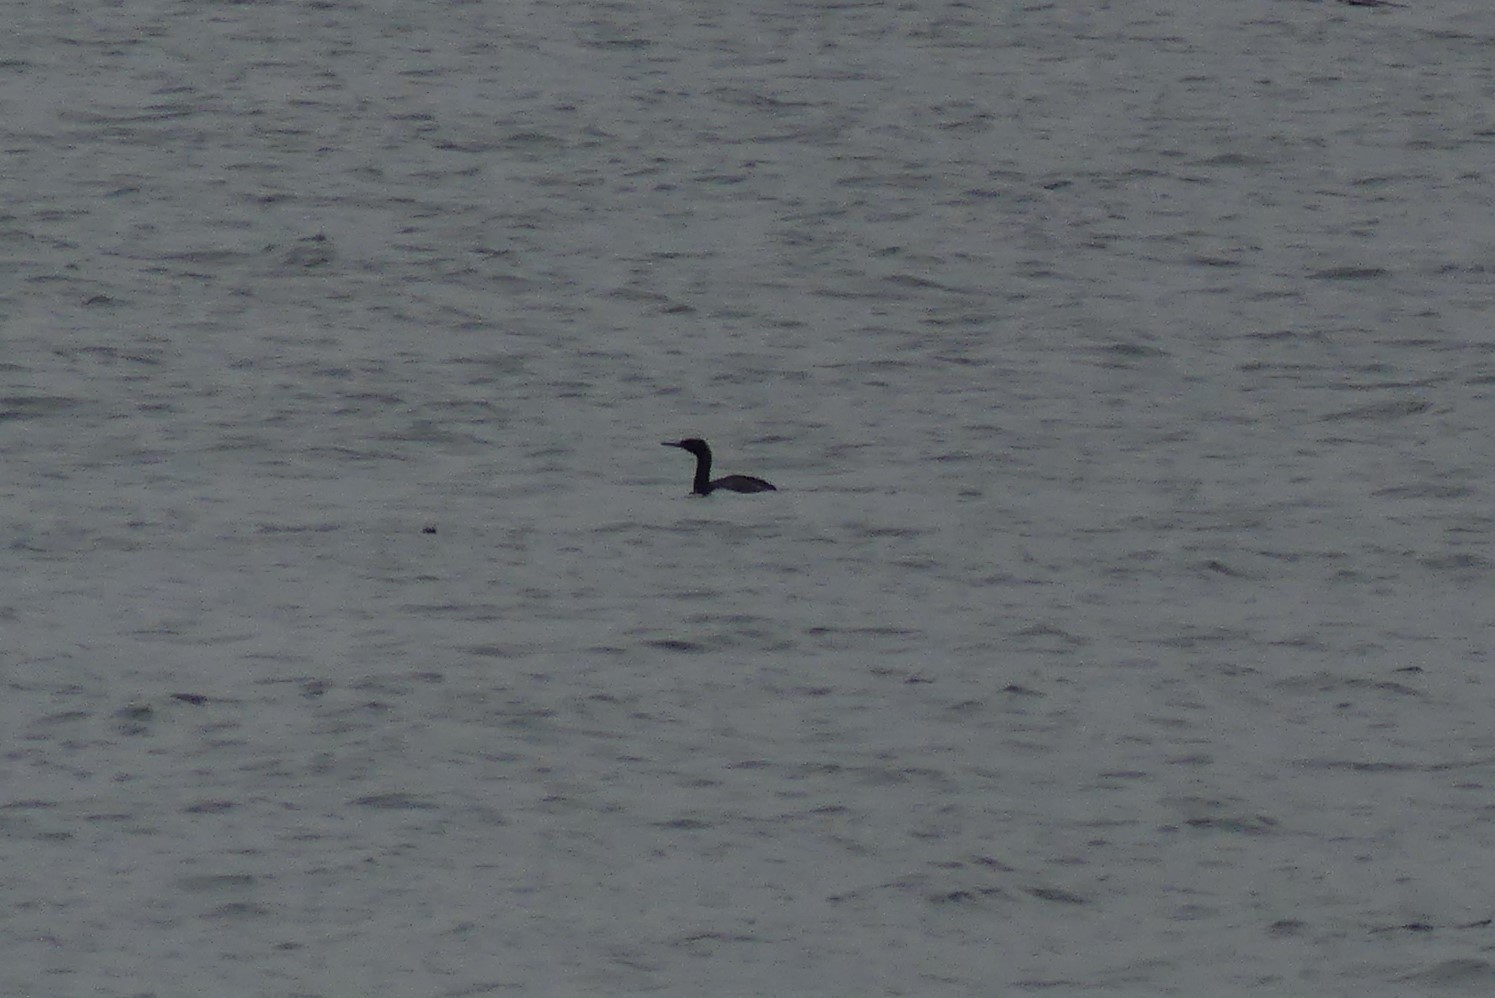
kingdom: Animalia
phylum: Chordata
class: Aves
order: Suliformes
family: Phalacrocoracidae
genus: Phalacrocorax
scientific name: Phalacrocorax pelagicus
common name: Pelagic cormorant
